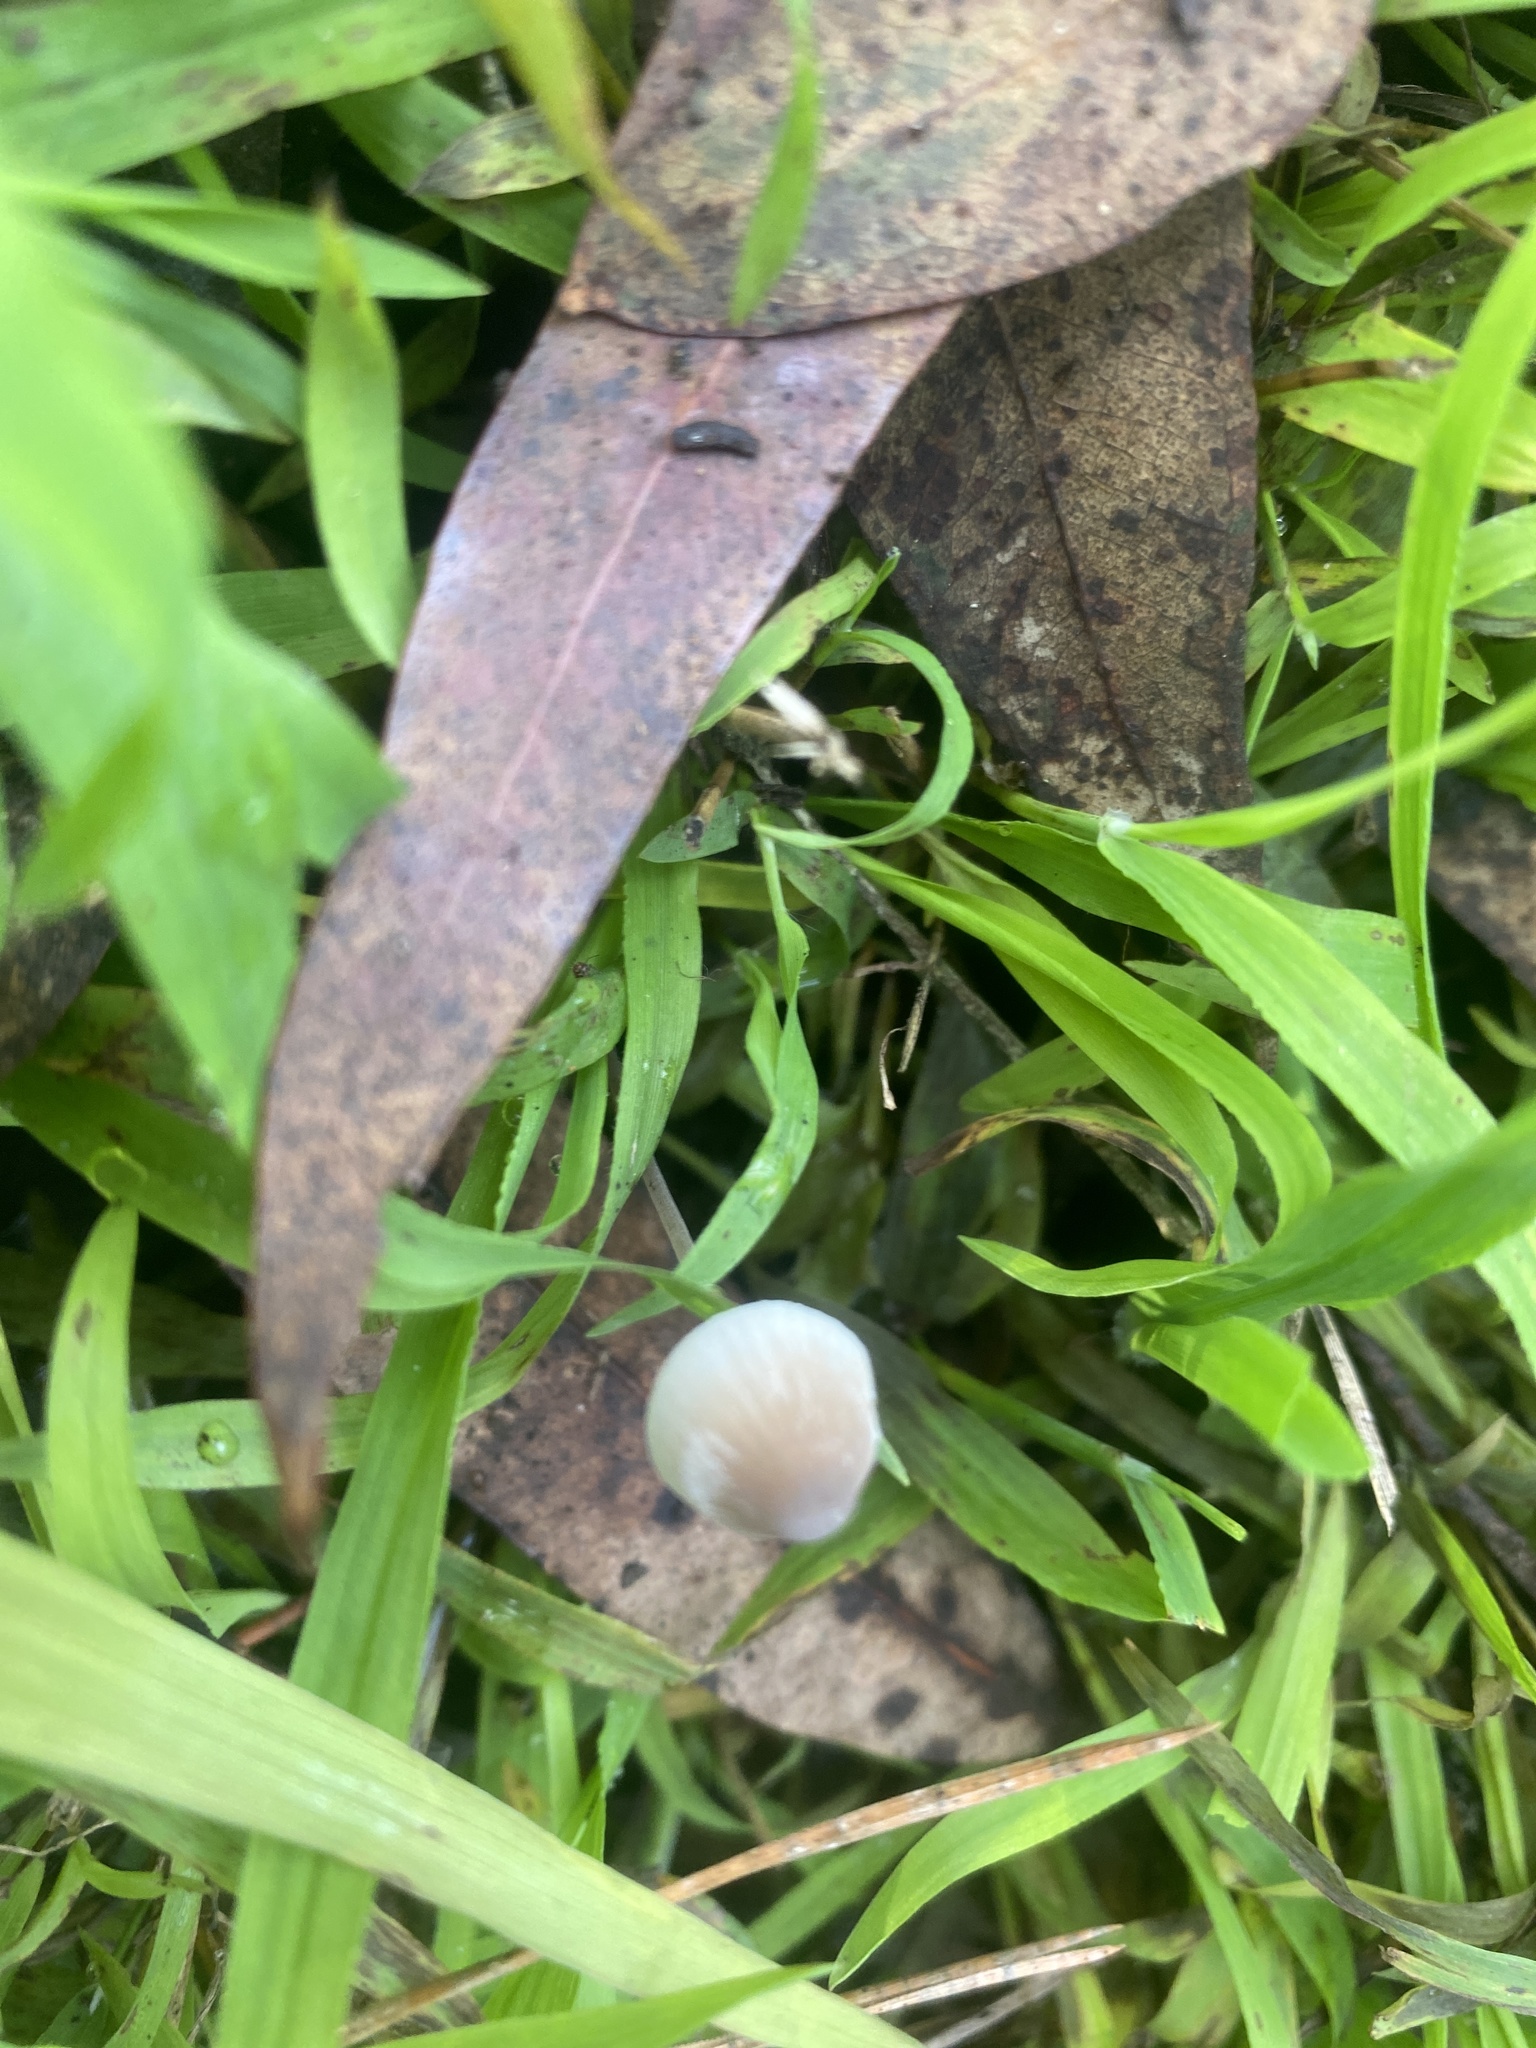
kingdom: Fungi
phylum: Basidiomycota
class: Agaricomycetes
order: Agaricales
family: Mycenaceae
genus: Mycena
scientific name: Mycena galopus
